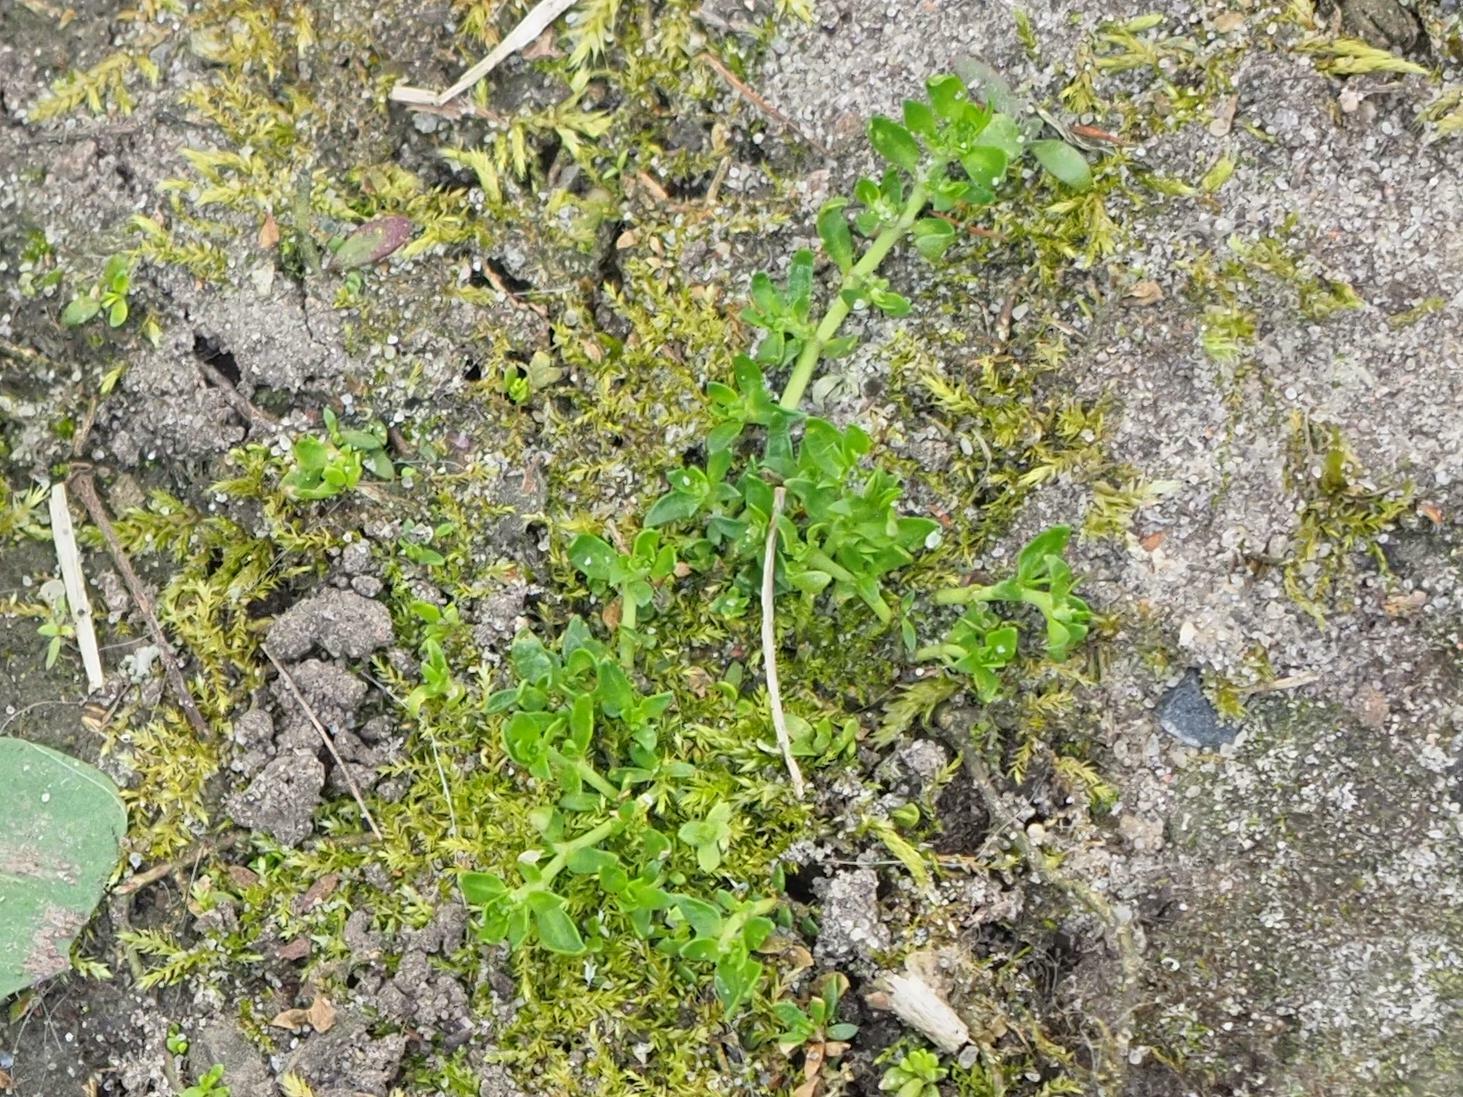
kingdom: Plantae
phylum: Tracheophyta
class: Magnoliopsida
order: Caryophyllales
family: Caryophyllaceae
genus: Herniaria
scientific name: Herniaria glabra
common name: Smooth rupturewort
